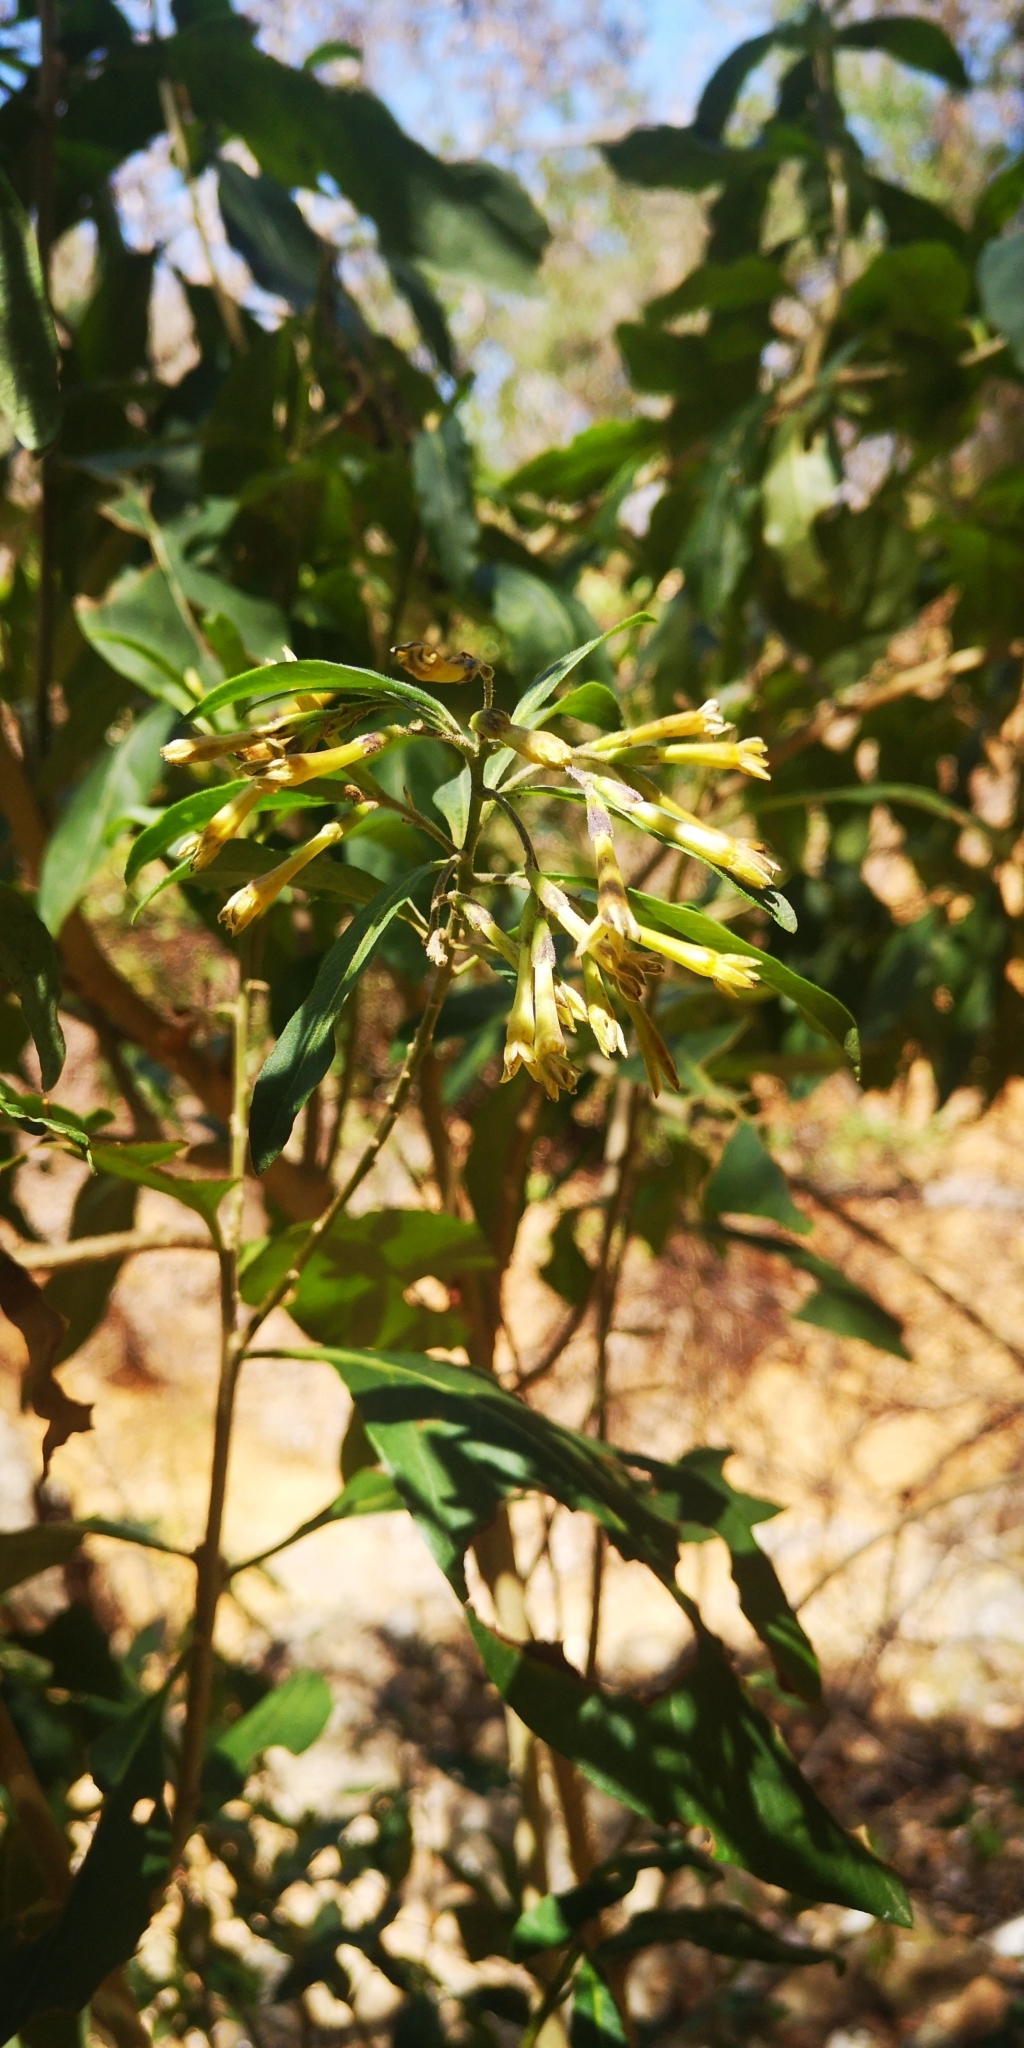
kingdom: Plantae
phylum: Tracheophyta
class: Magnoliopsida
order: Solanales
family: Solanaceae
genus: Cestrum
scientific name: Cestrum parqui
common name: Chilean cestrum
